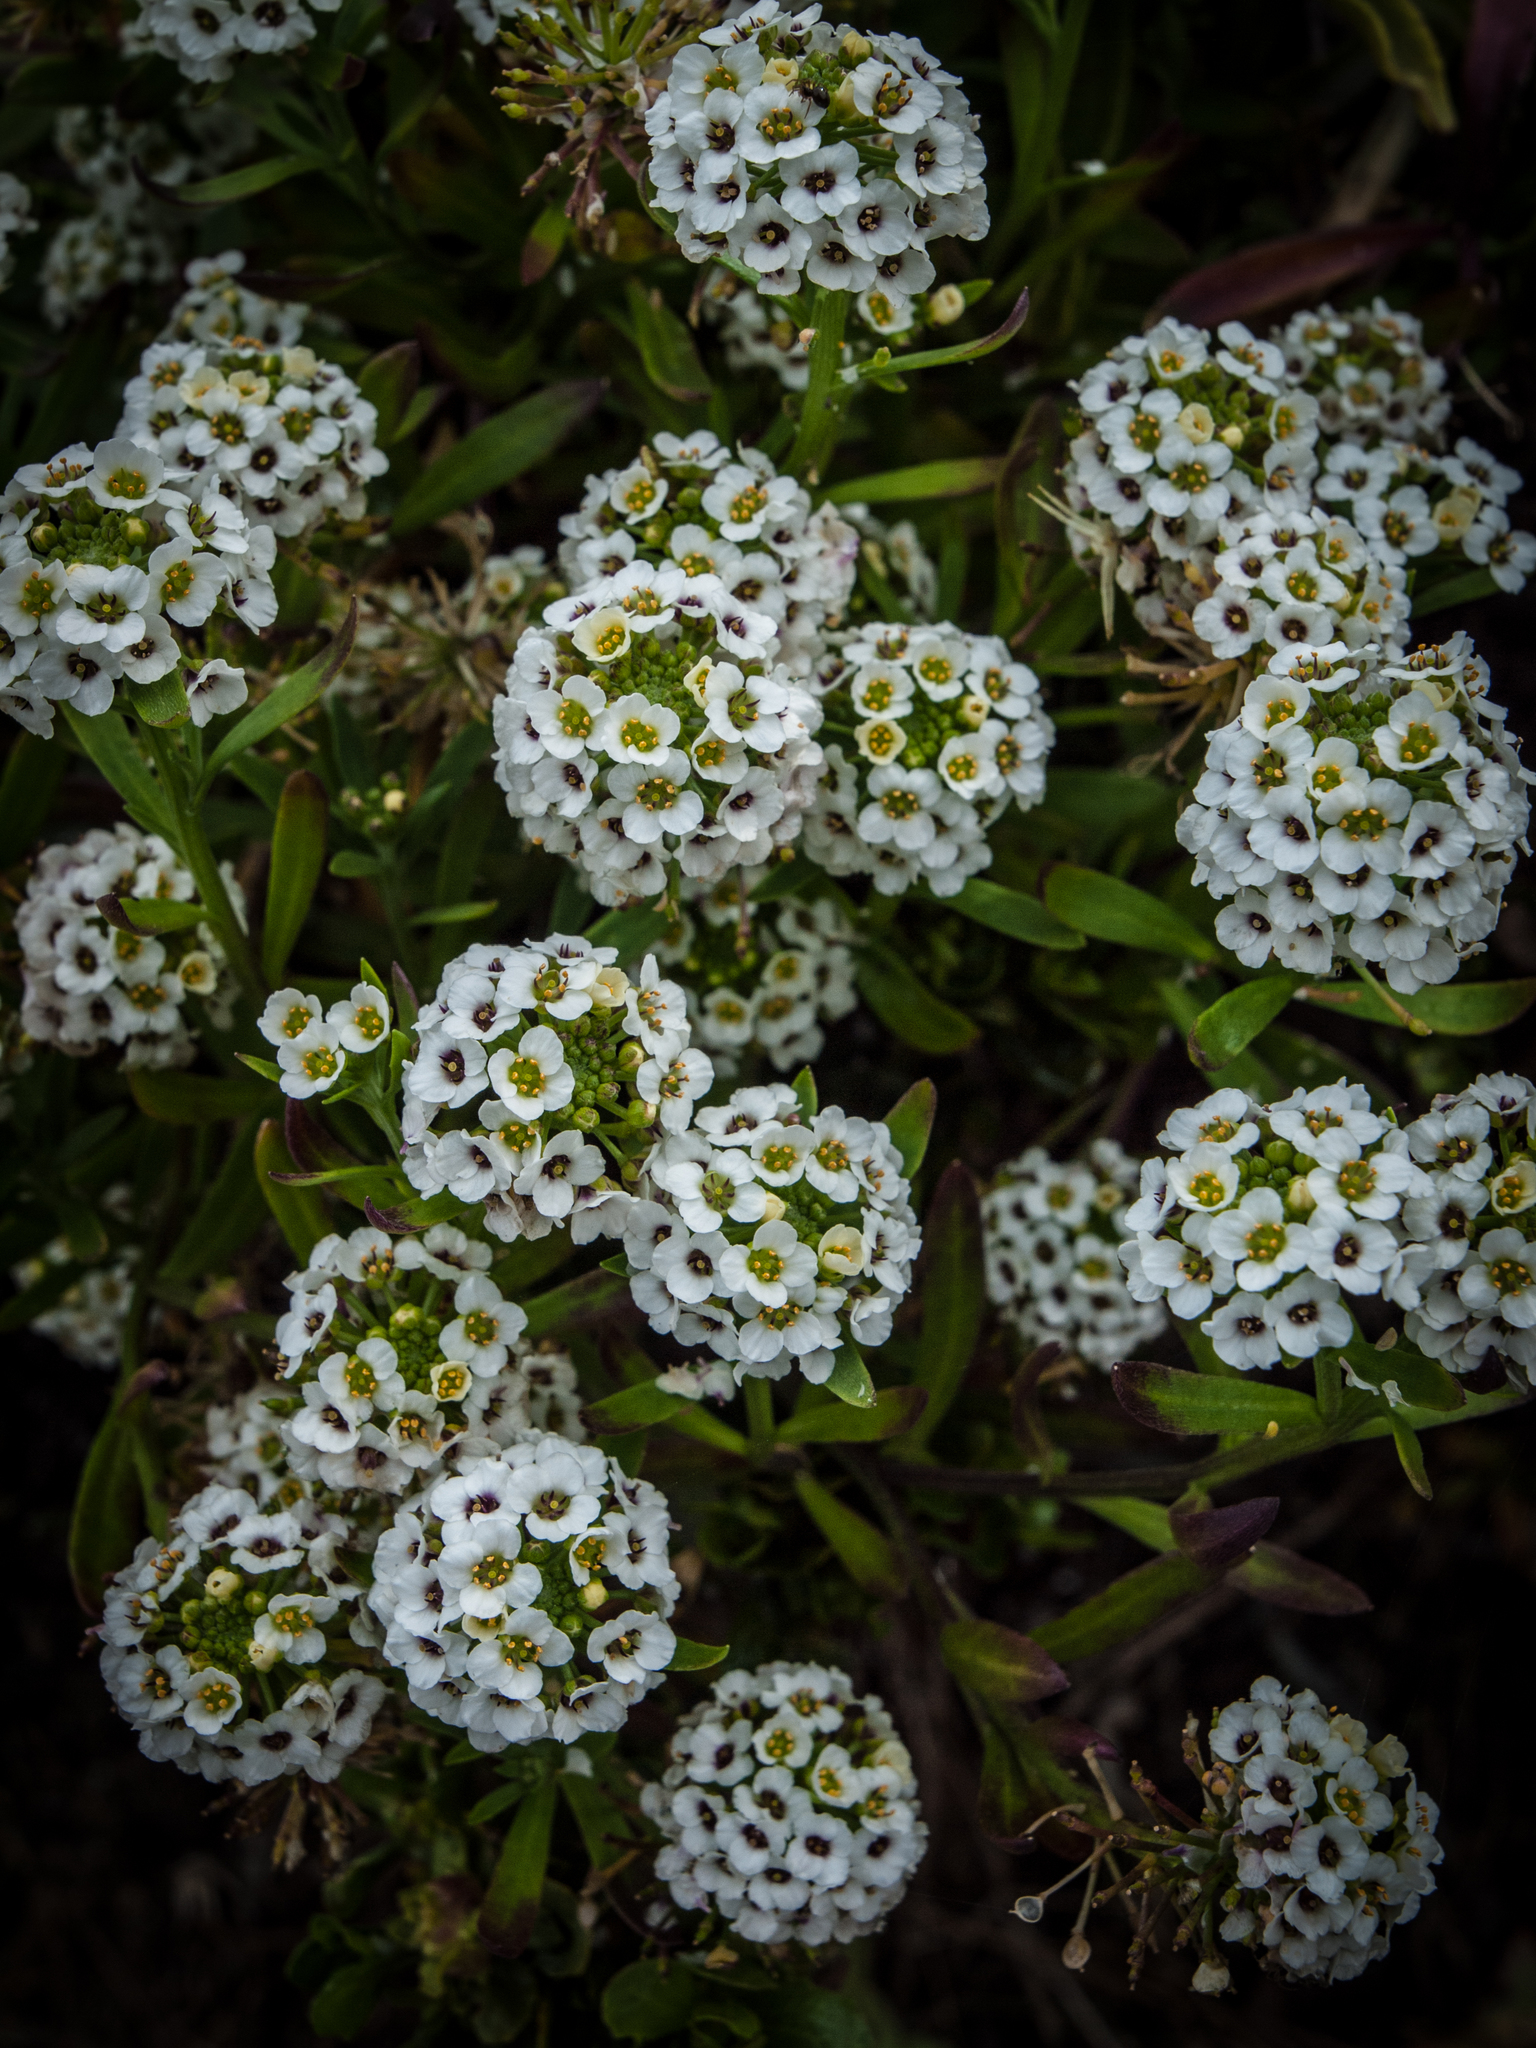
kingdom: Plantae
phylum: Tracheophyta
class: Magnoliopsida
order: Brassicales
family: Brassicaceae
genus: Lobularia
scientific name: Lobularia maritima
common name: Sweet alison
